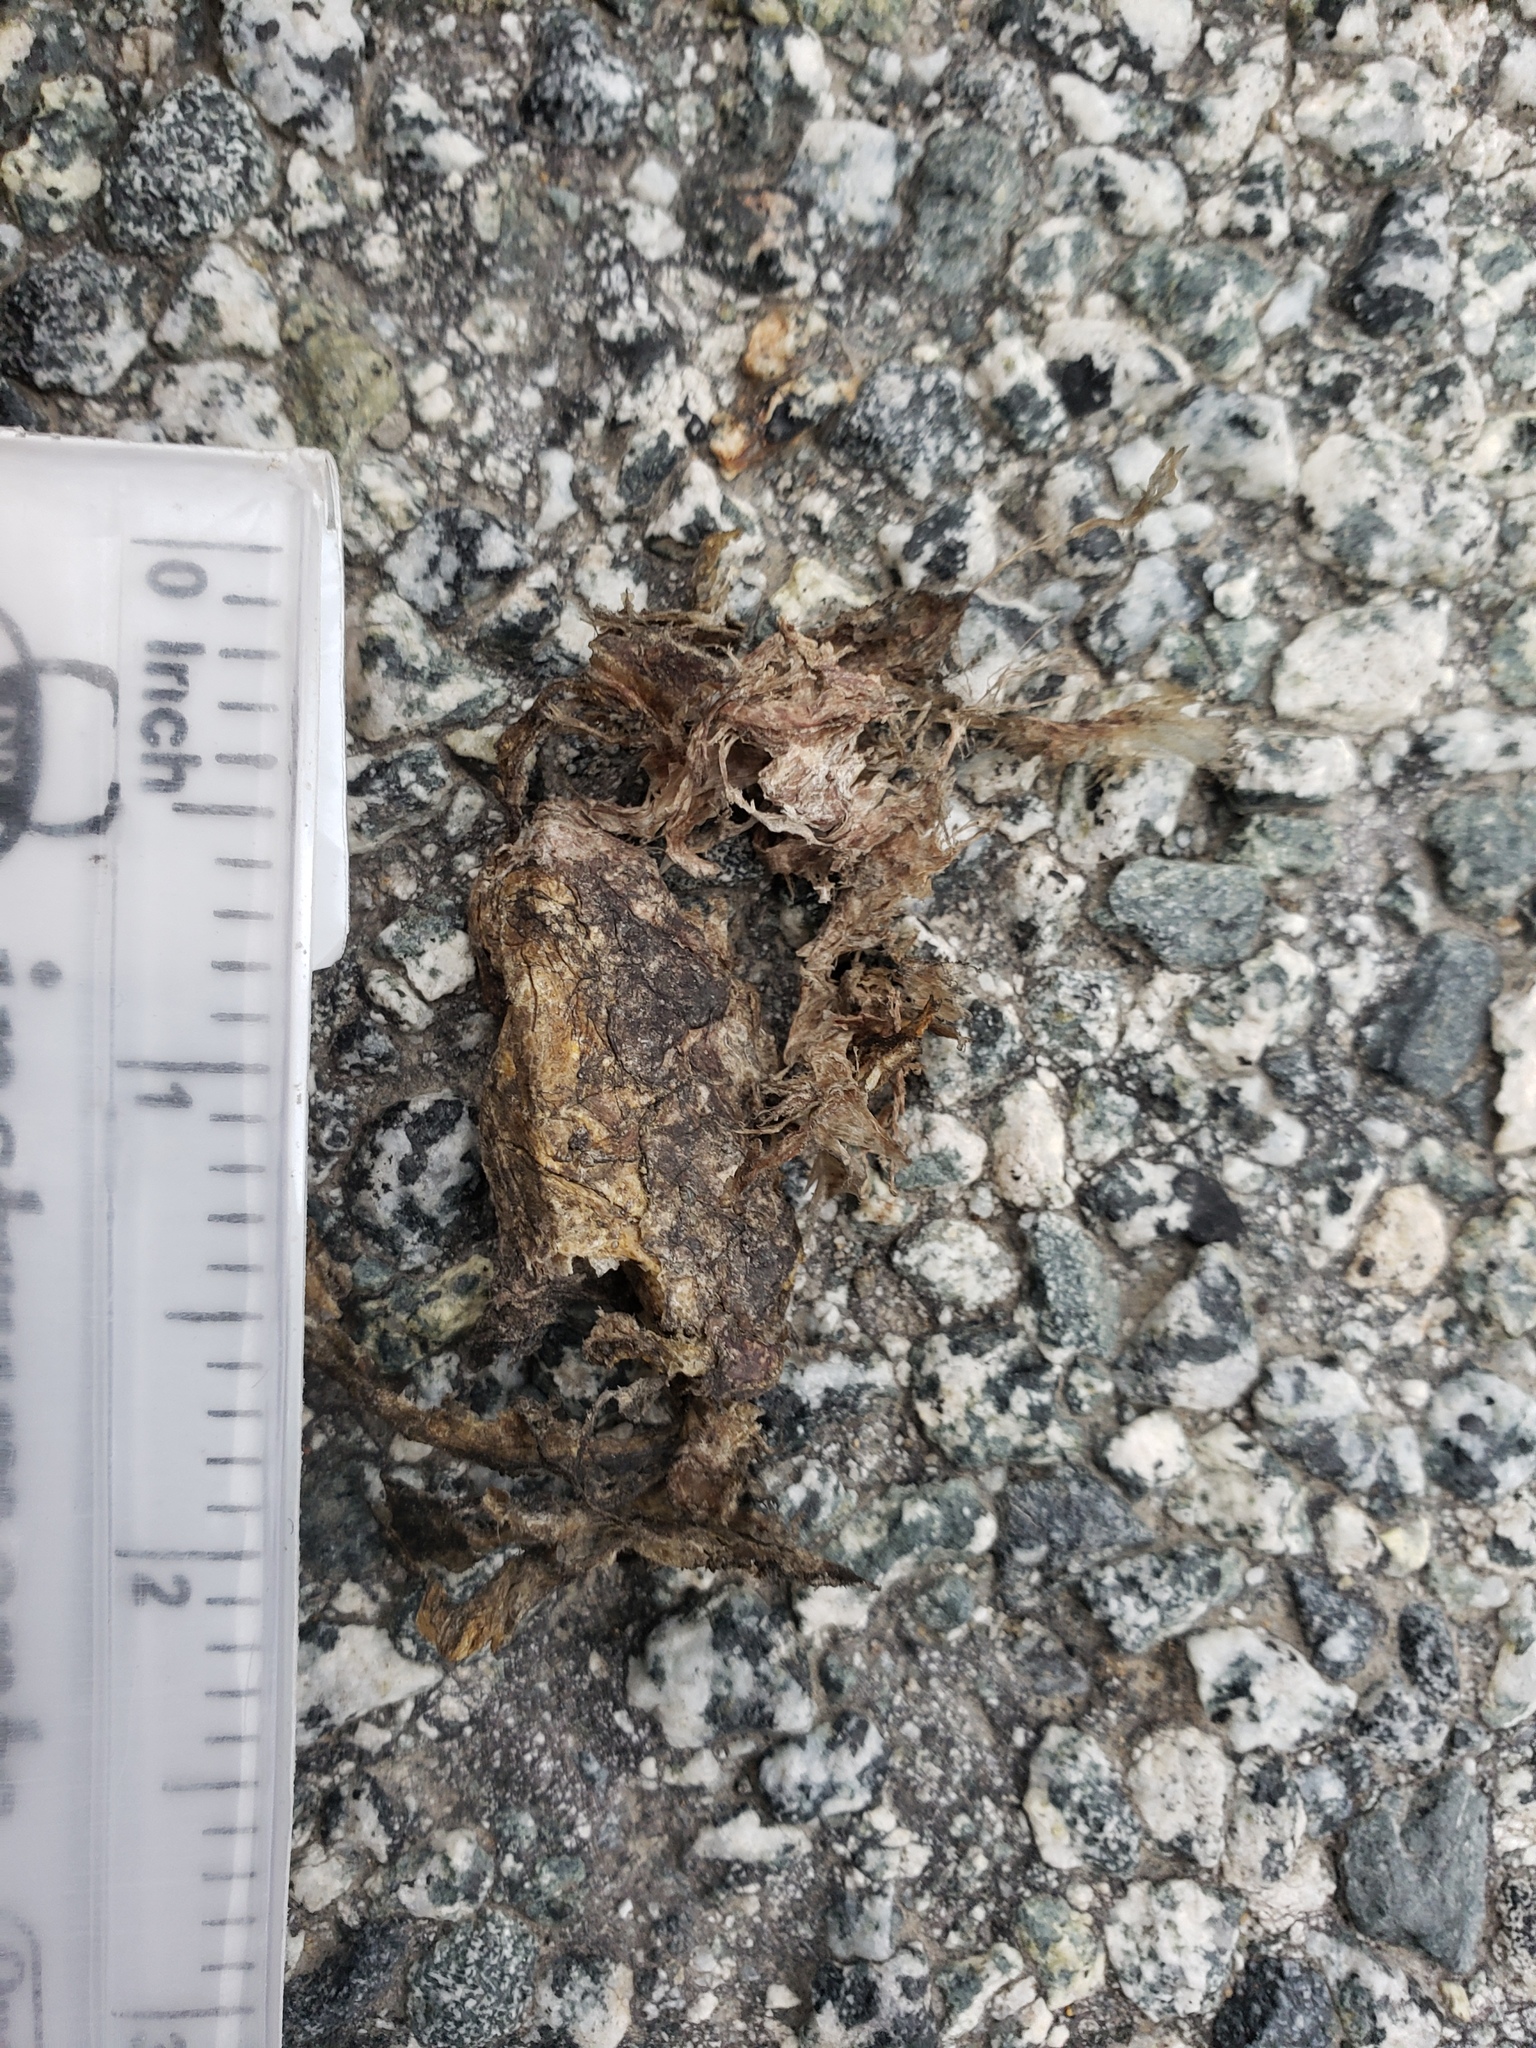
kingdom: Animalia
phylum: Chordata
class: Amphibia
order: Caudata
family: Salamandridae
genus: Taricha
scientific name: Taricha
